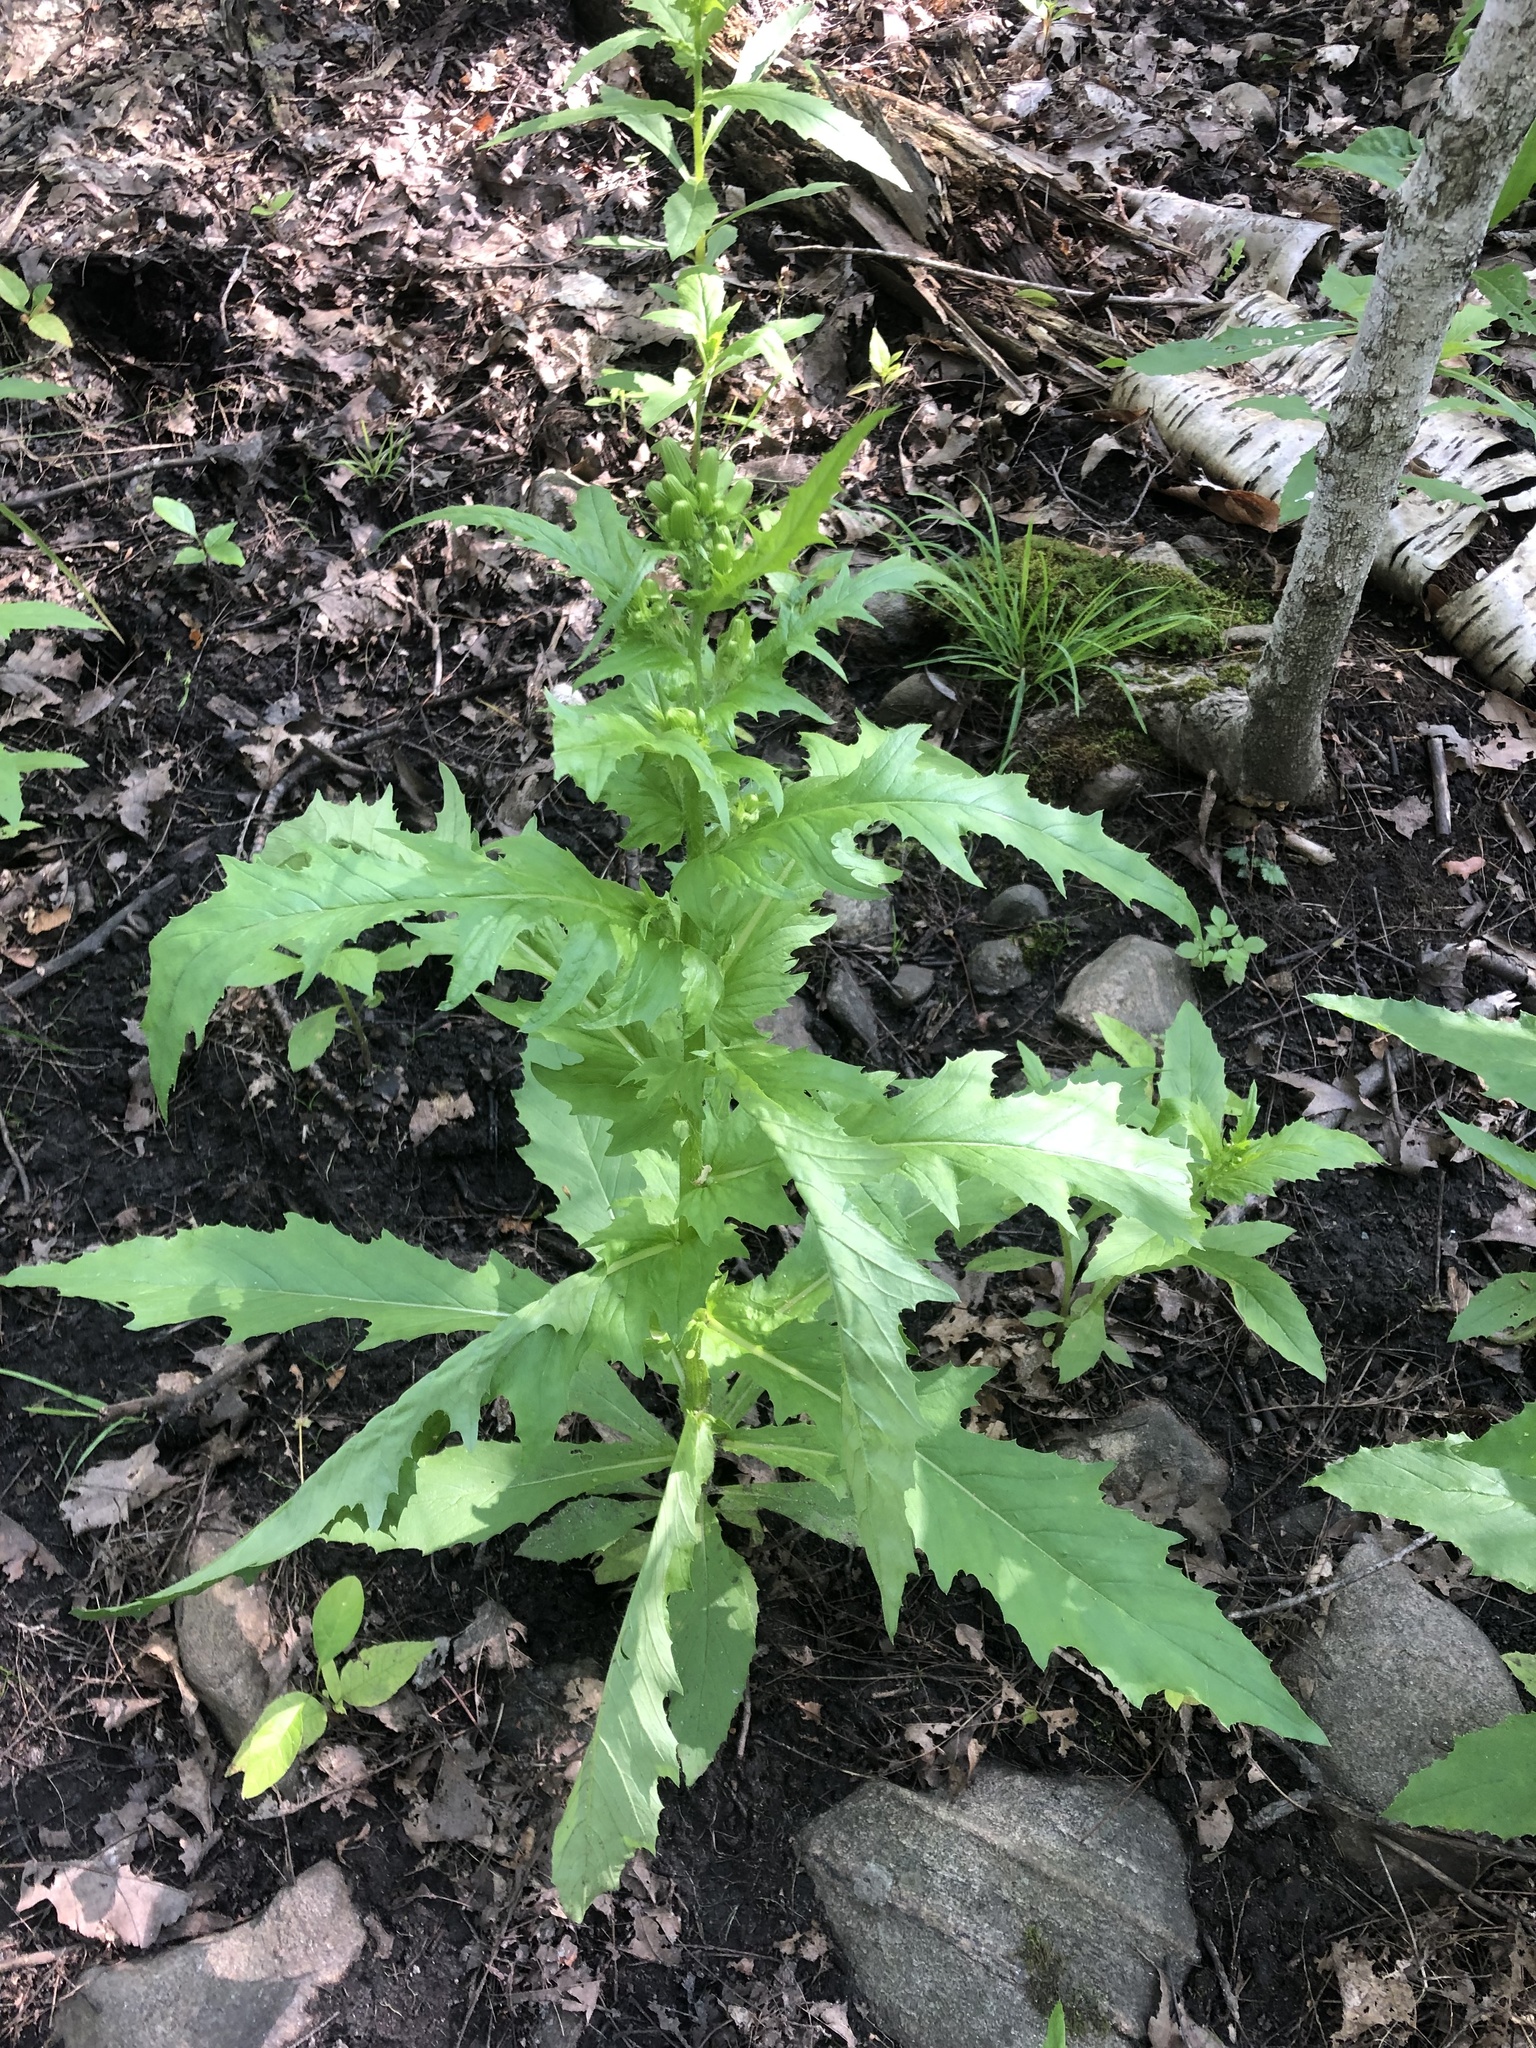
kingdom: Plantae
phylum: Tracheophyta
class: Magnoliopsida
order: Asterales
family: Asteraceae
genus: Erechtites
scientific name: Erechtites hieraciifolius
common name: American burnweed
